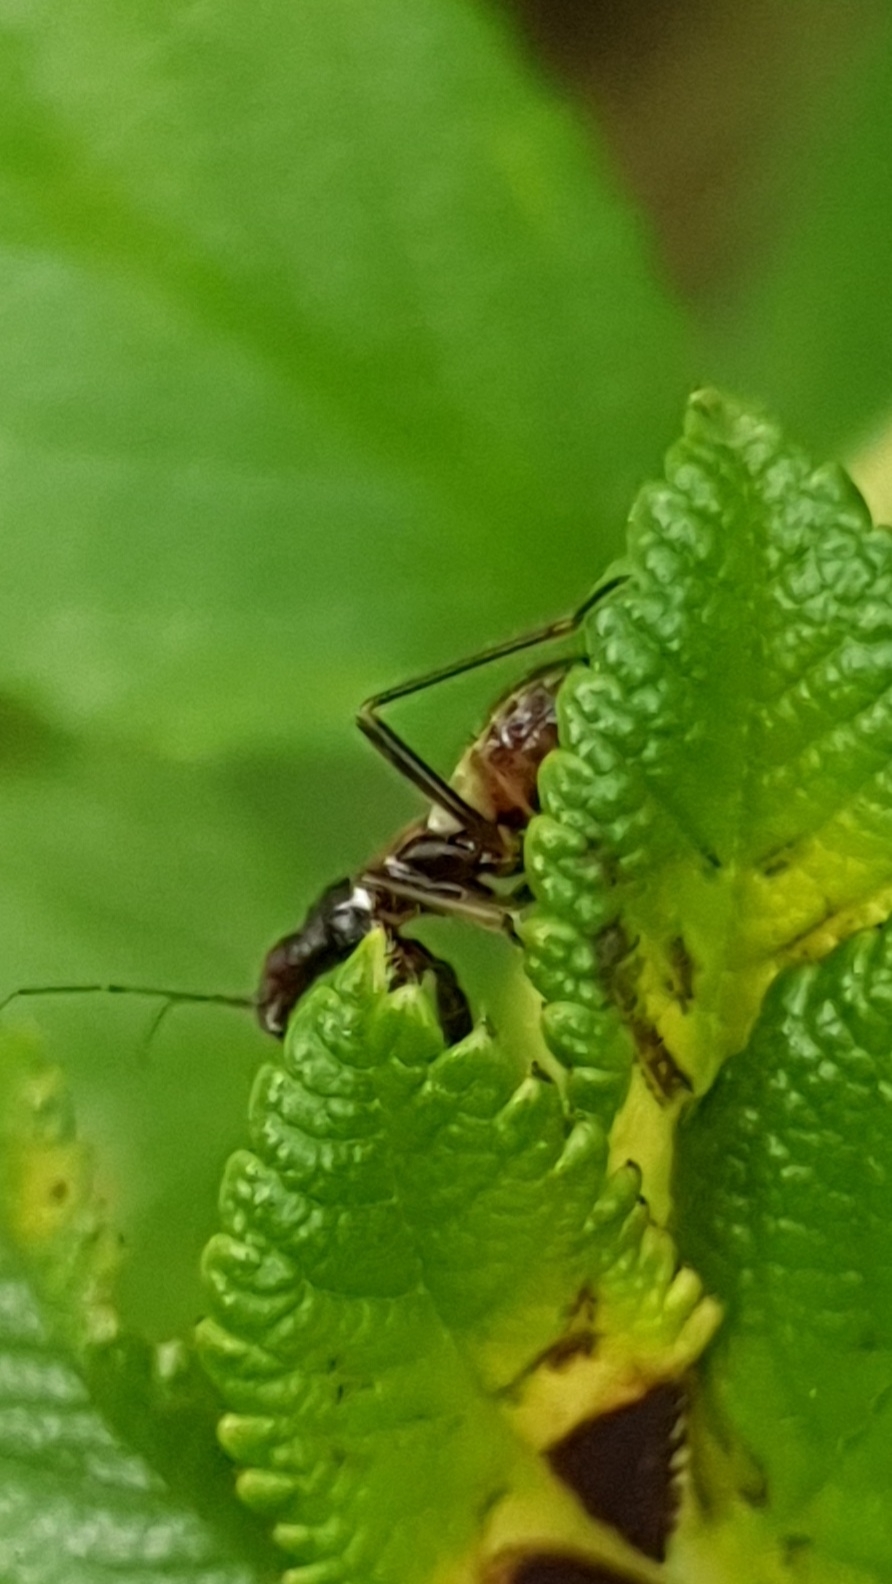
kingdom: Animalia
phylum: Arthropoda
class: Insecta
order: Hemiptera
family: Nabidae
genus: Himacerus
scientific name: Himacerus mirmicoides
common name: Ant damsel bug
